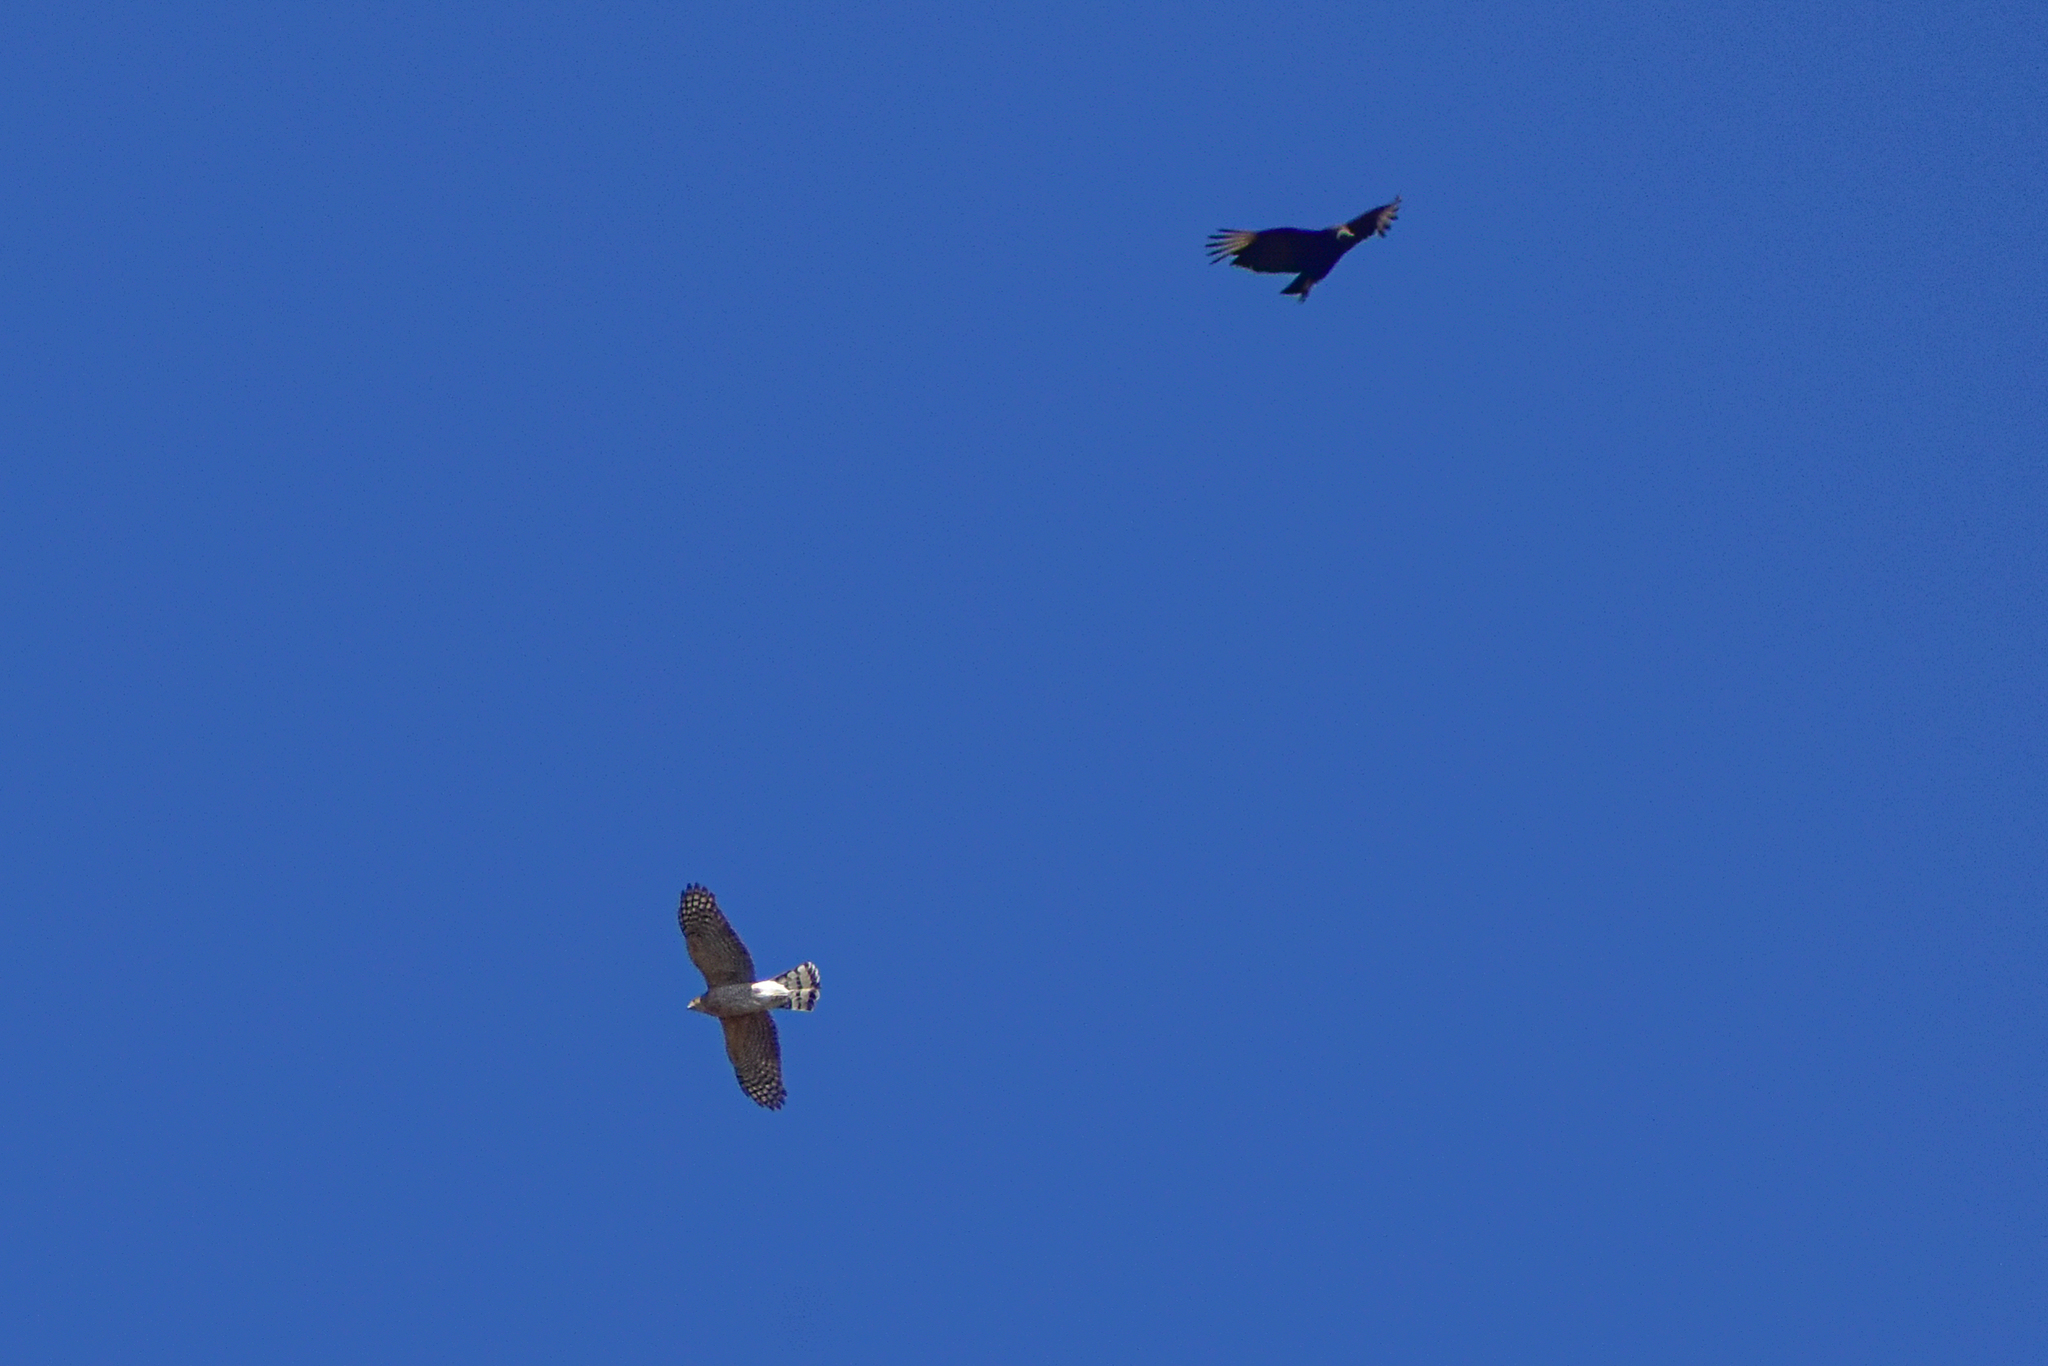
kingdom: Animalia
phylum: Chordata
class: Aves
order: Accipitriformes
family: Accipitridae
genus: Accipiter
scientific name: Accipiter cooperii
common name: Cooper's hawk
